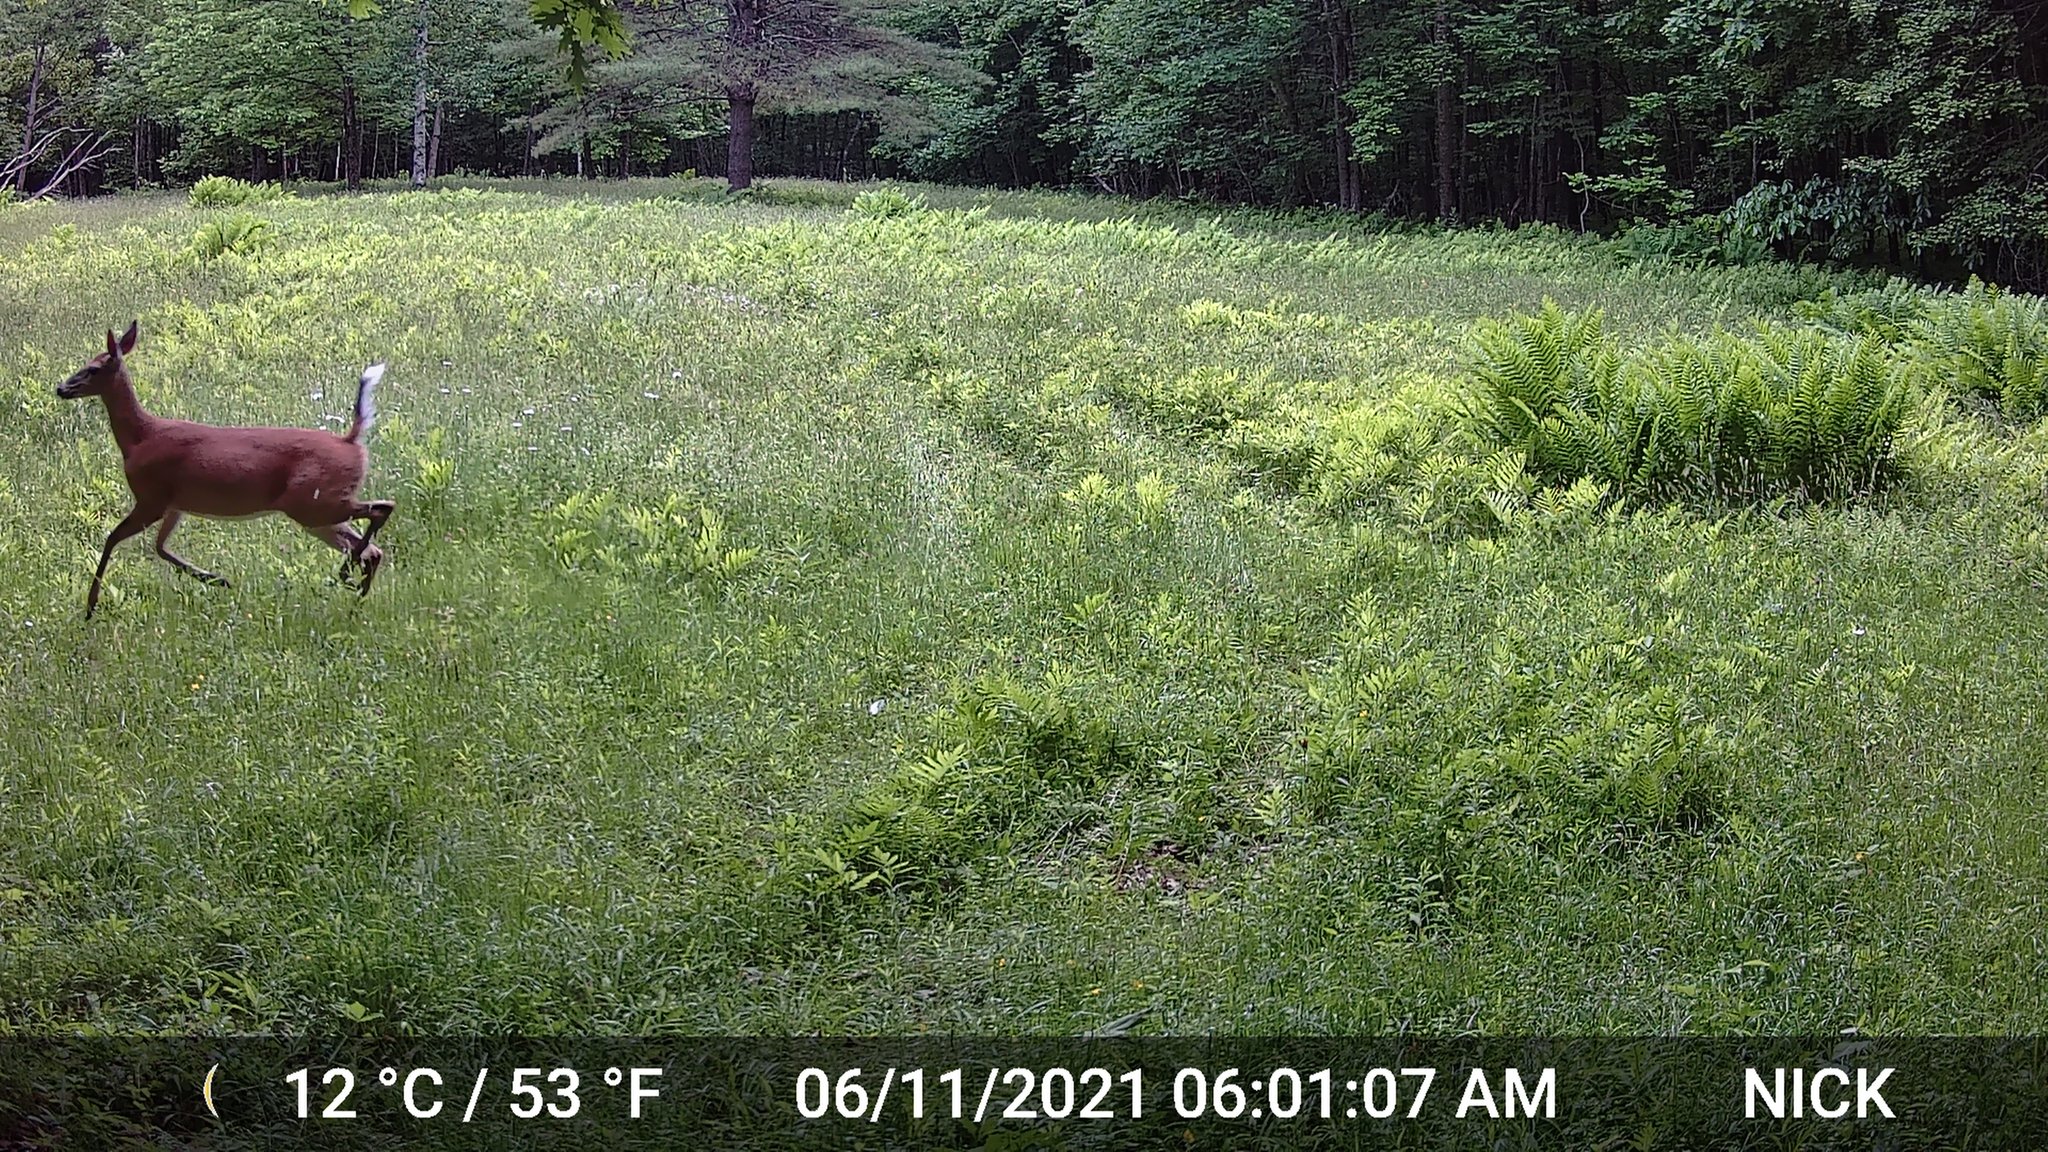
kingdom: Animalia
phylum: Chordata
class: Mammalia
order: Artiodactyla
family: Cervidae
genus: Odocoileus
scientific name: Odocoileus virginianus
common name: White-tailed deer
